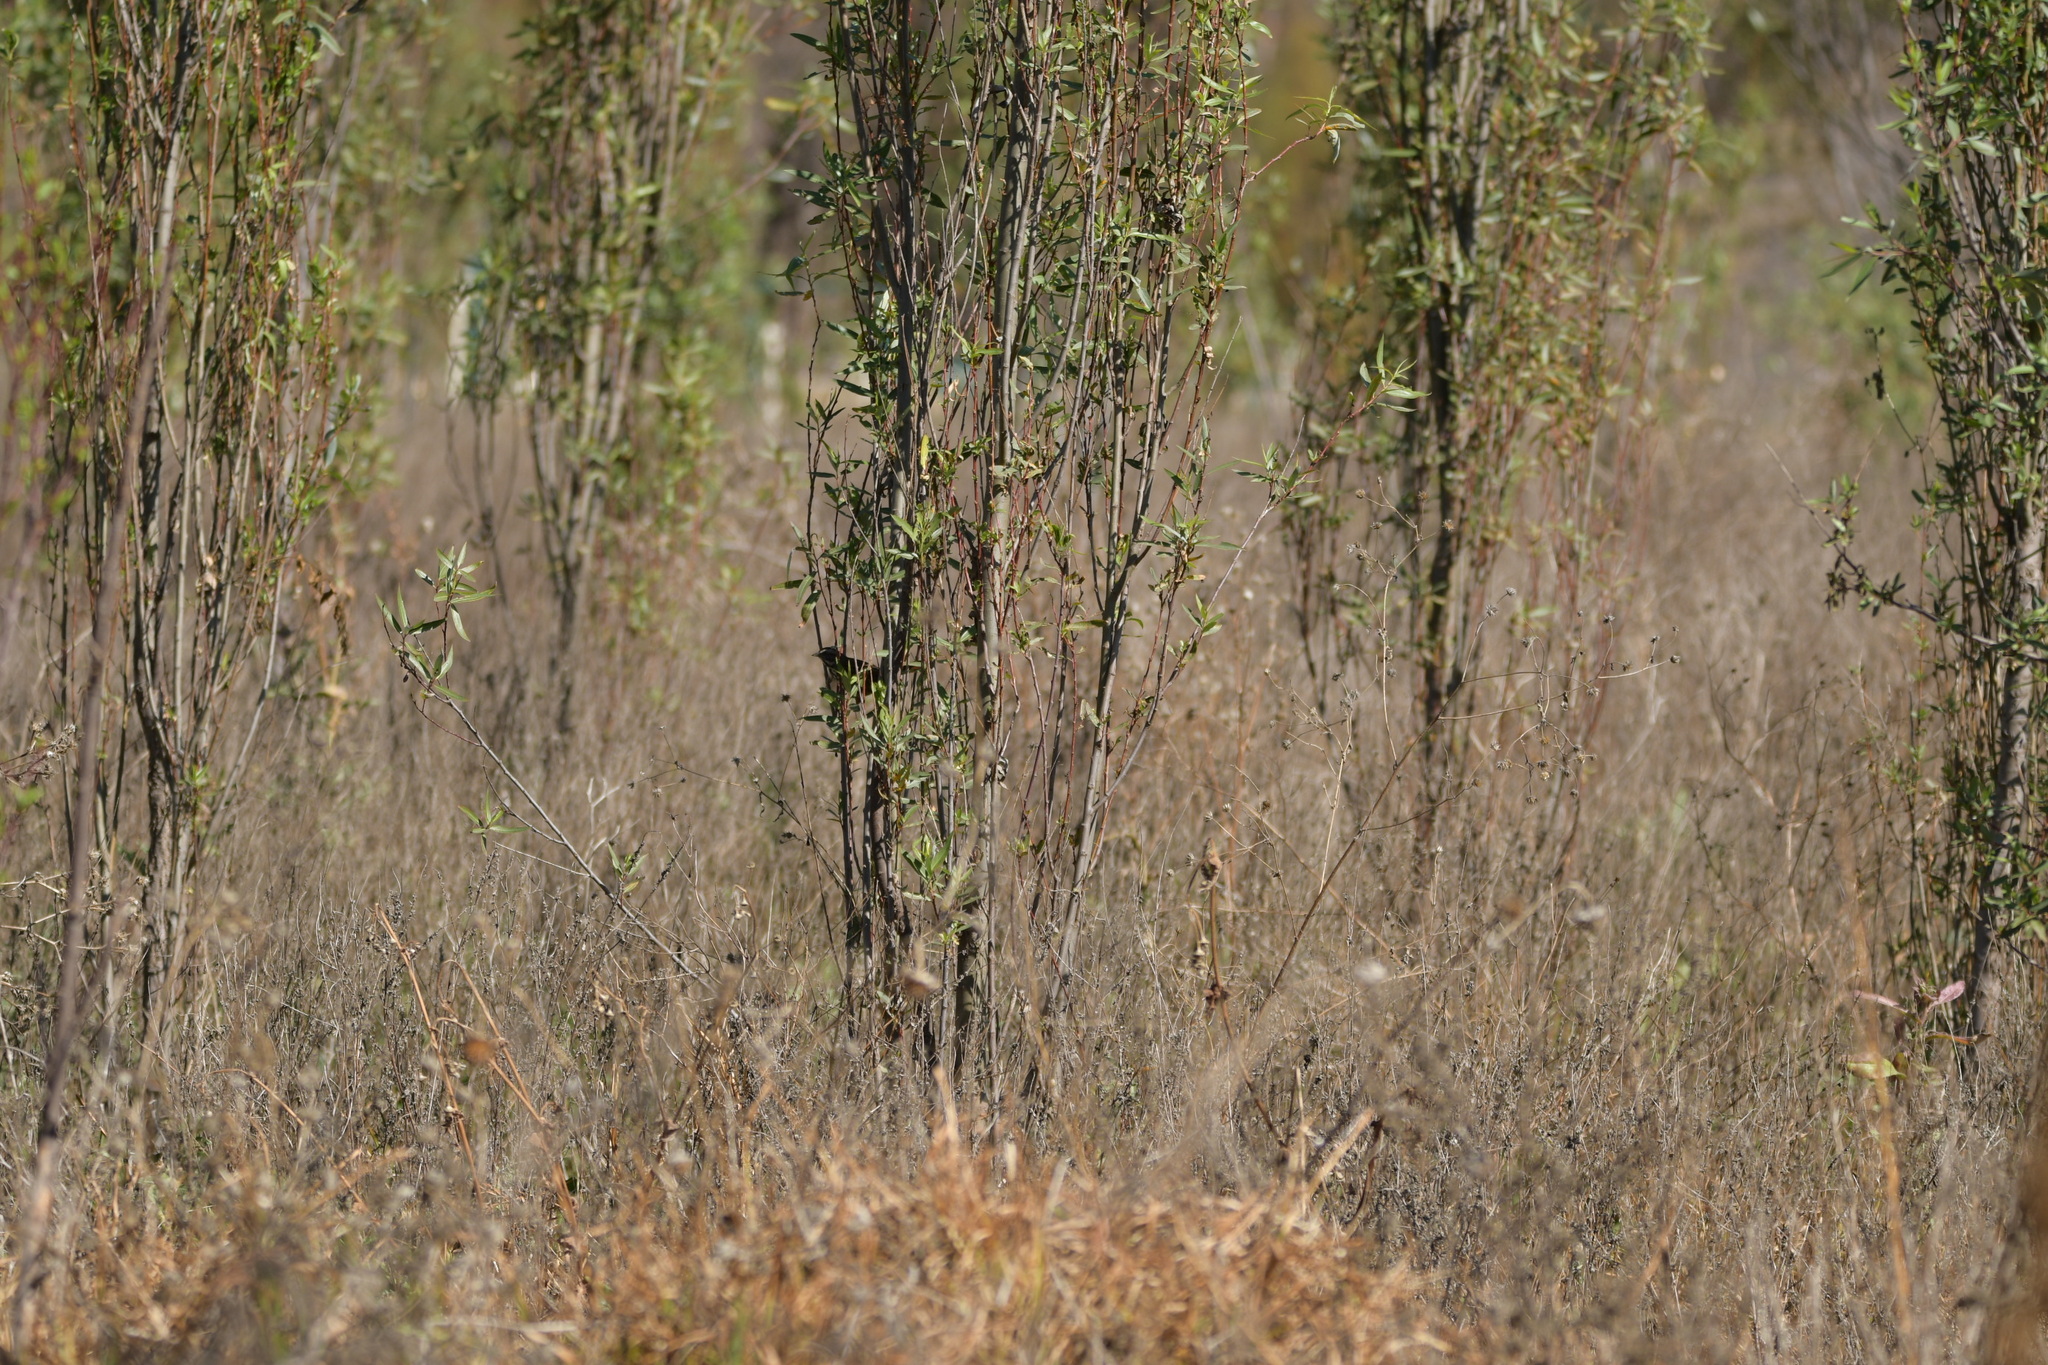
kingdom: Animalia
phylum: Chordata
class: Aves
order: Passeriformes
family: Passerellidae
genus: Melospiza
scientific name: Melospiza melodia
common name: Song sparrow
